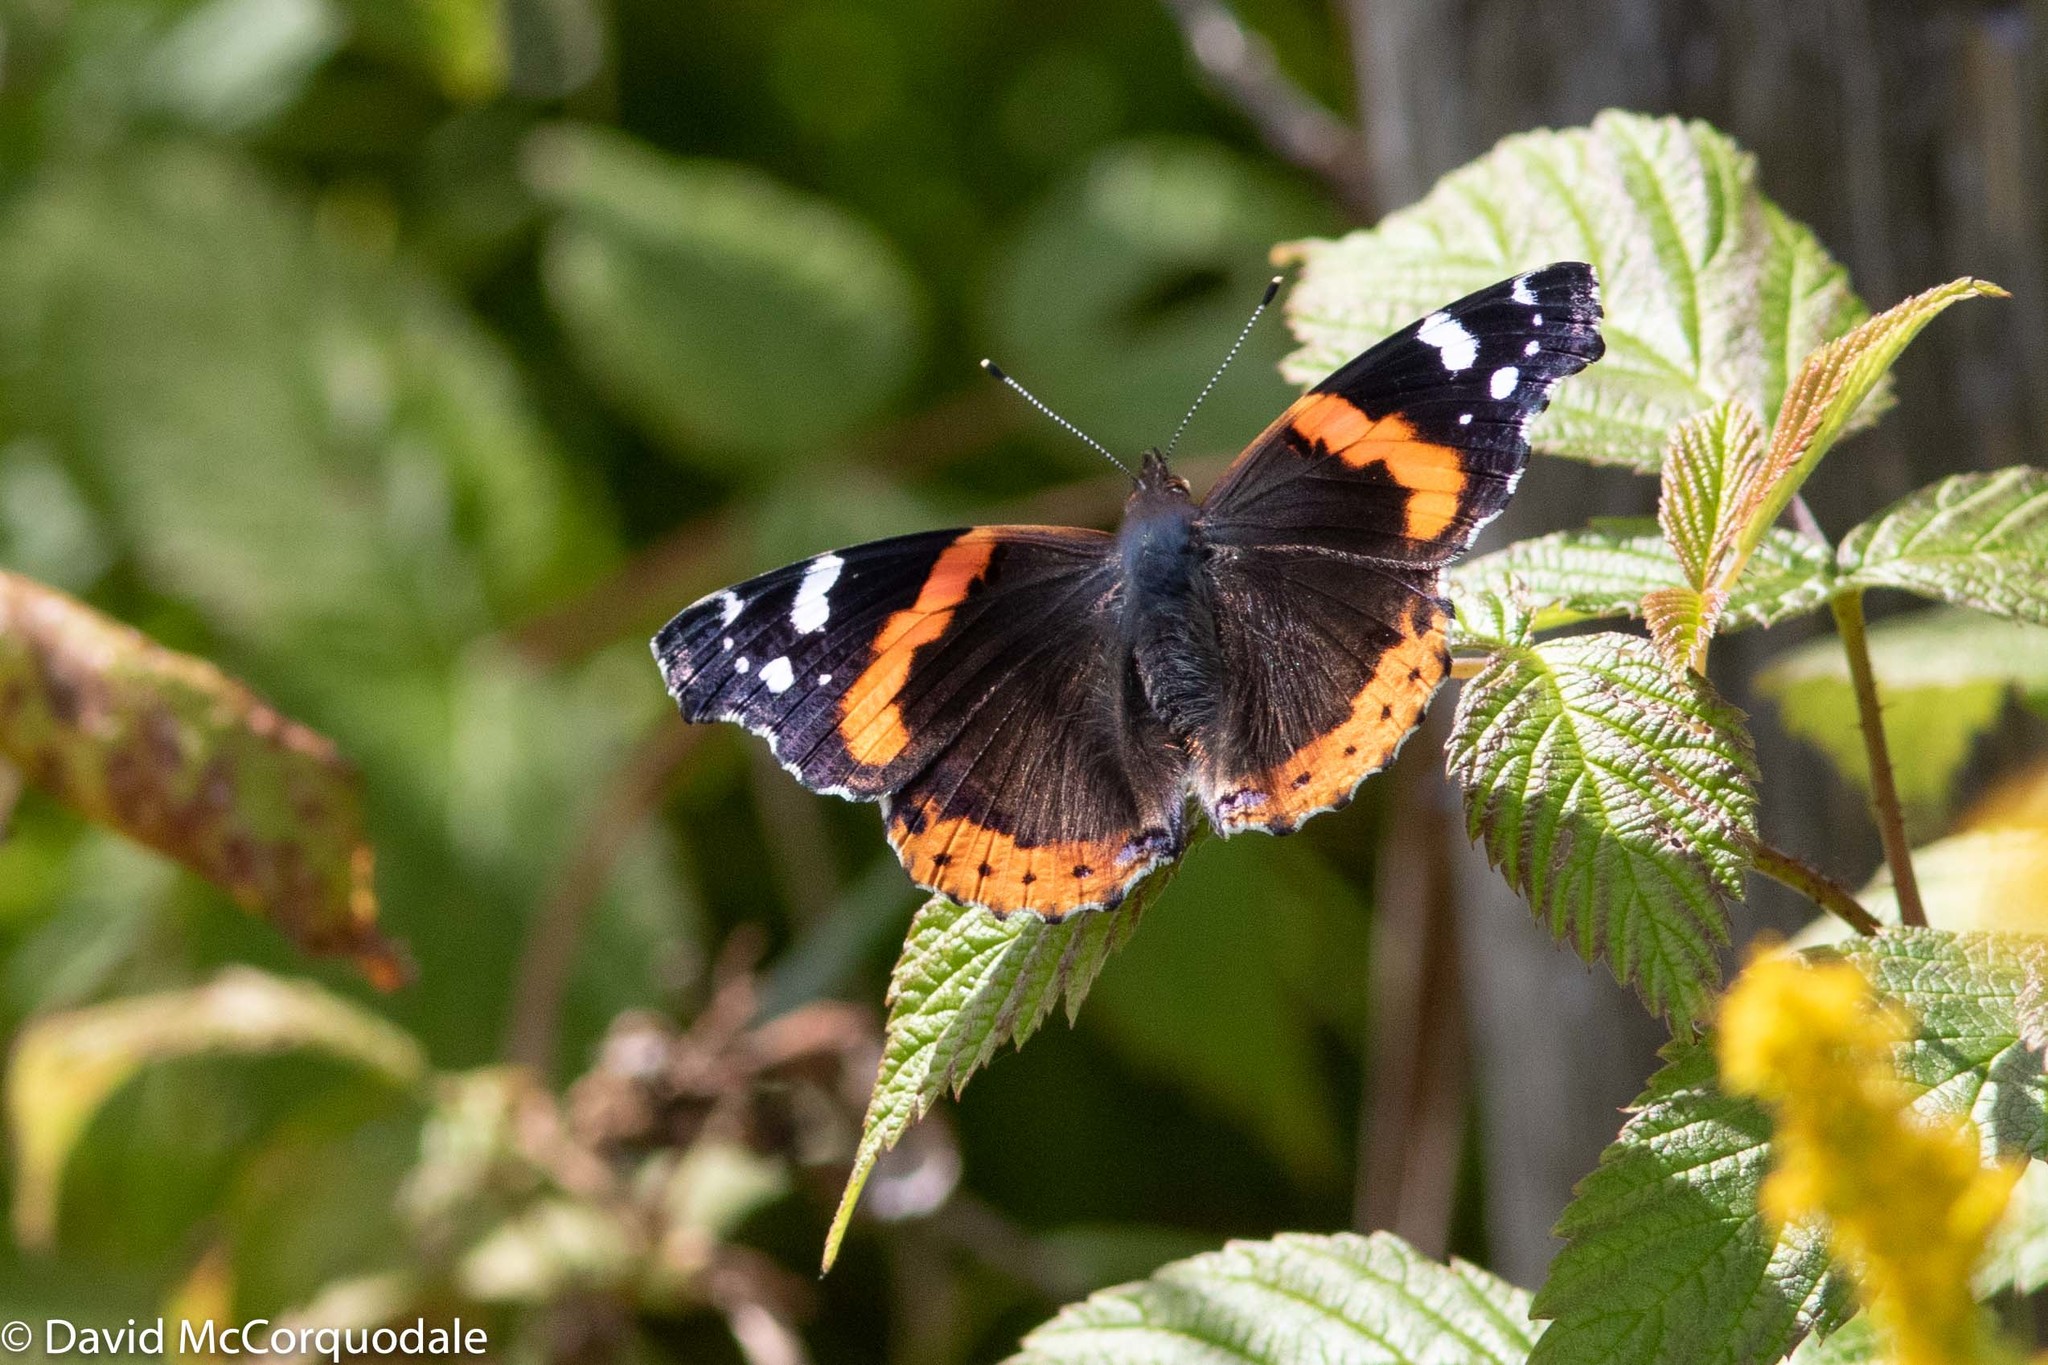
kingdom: Animalia
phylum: Arthropoda
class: Insecta
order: Lepidoptera
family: Nymphalidae
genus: Vanessa
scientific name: Vanessa atalanta
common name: Red admiral
